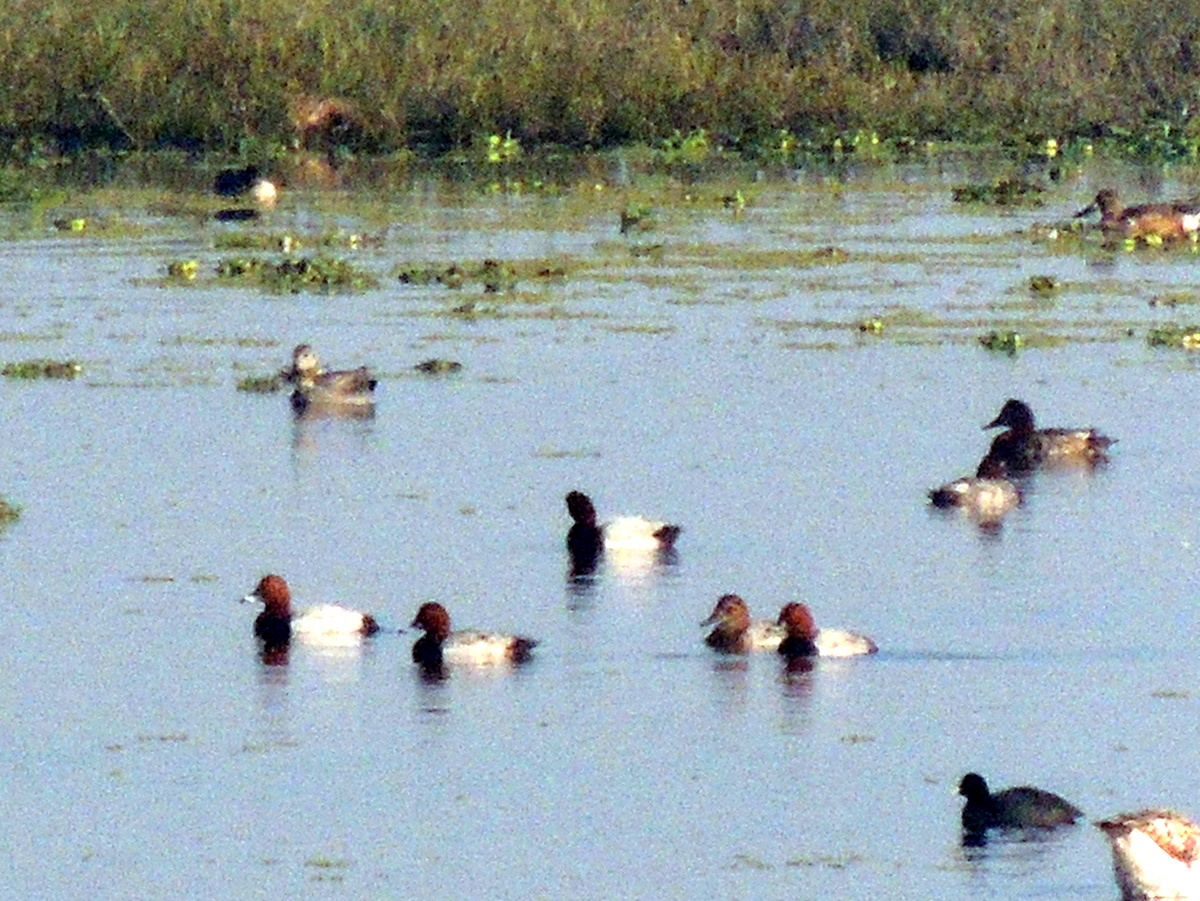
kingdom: Animalia
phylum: Chordata
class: Aves
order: Anseriformes
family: Anatidae
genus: Aythya
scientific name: Aythya ferina
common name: Common pochard
